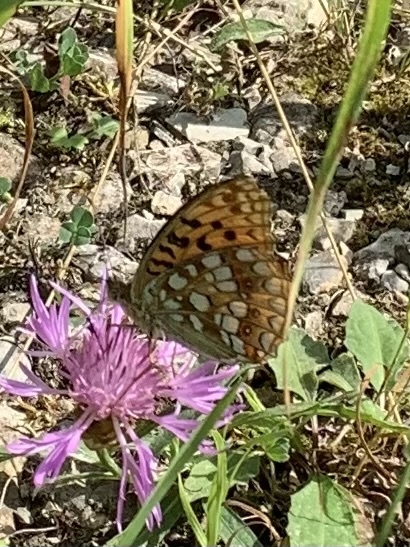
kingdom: Animalia
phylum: Arthropoda
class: Insecta
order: Lepidoptera
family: Nymphalidae
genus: Fabriciana
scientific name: Fabriciana adippe
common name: High brown fritillary
